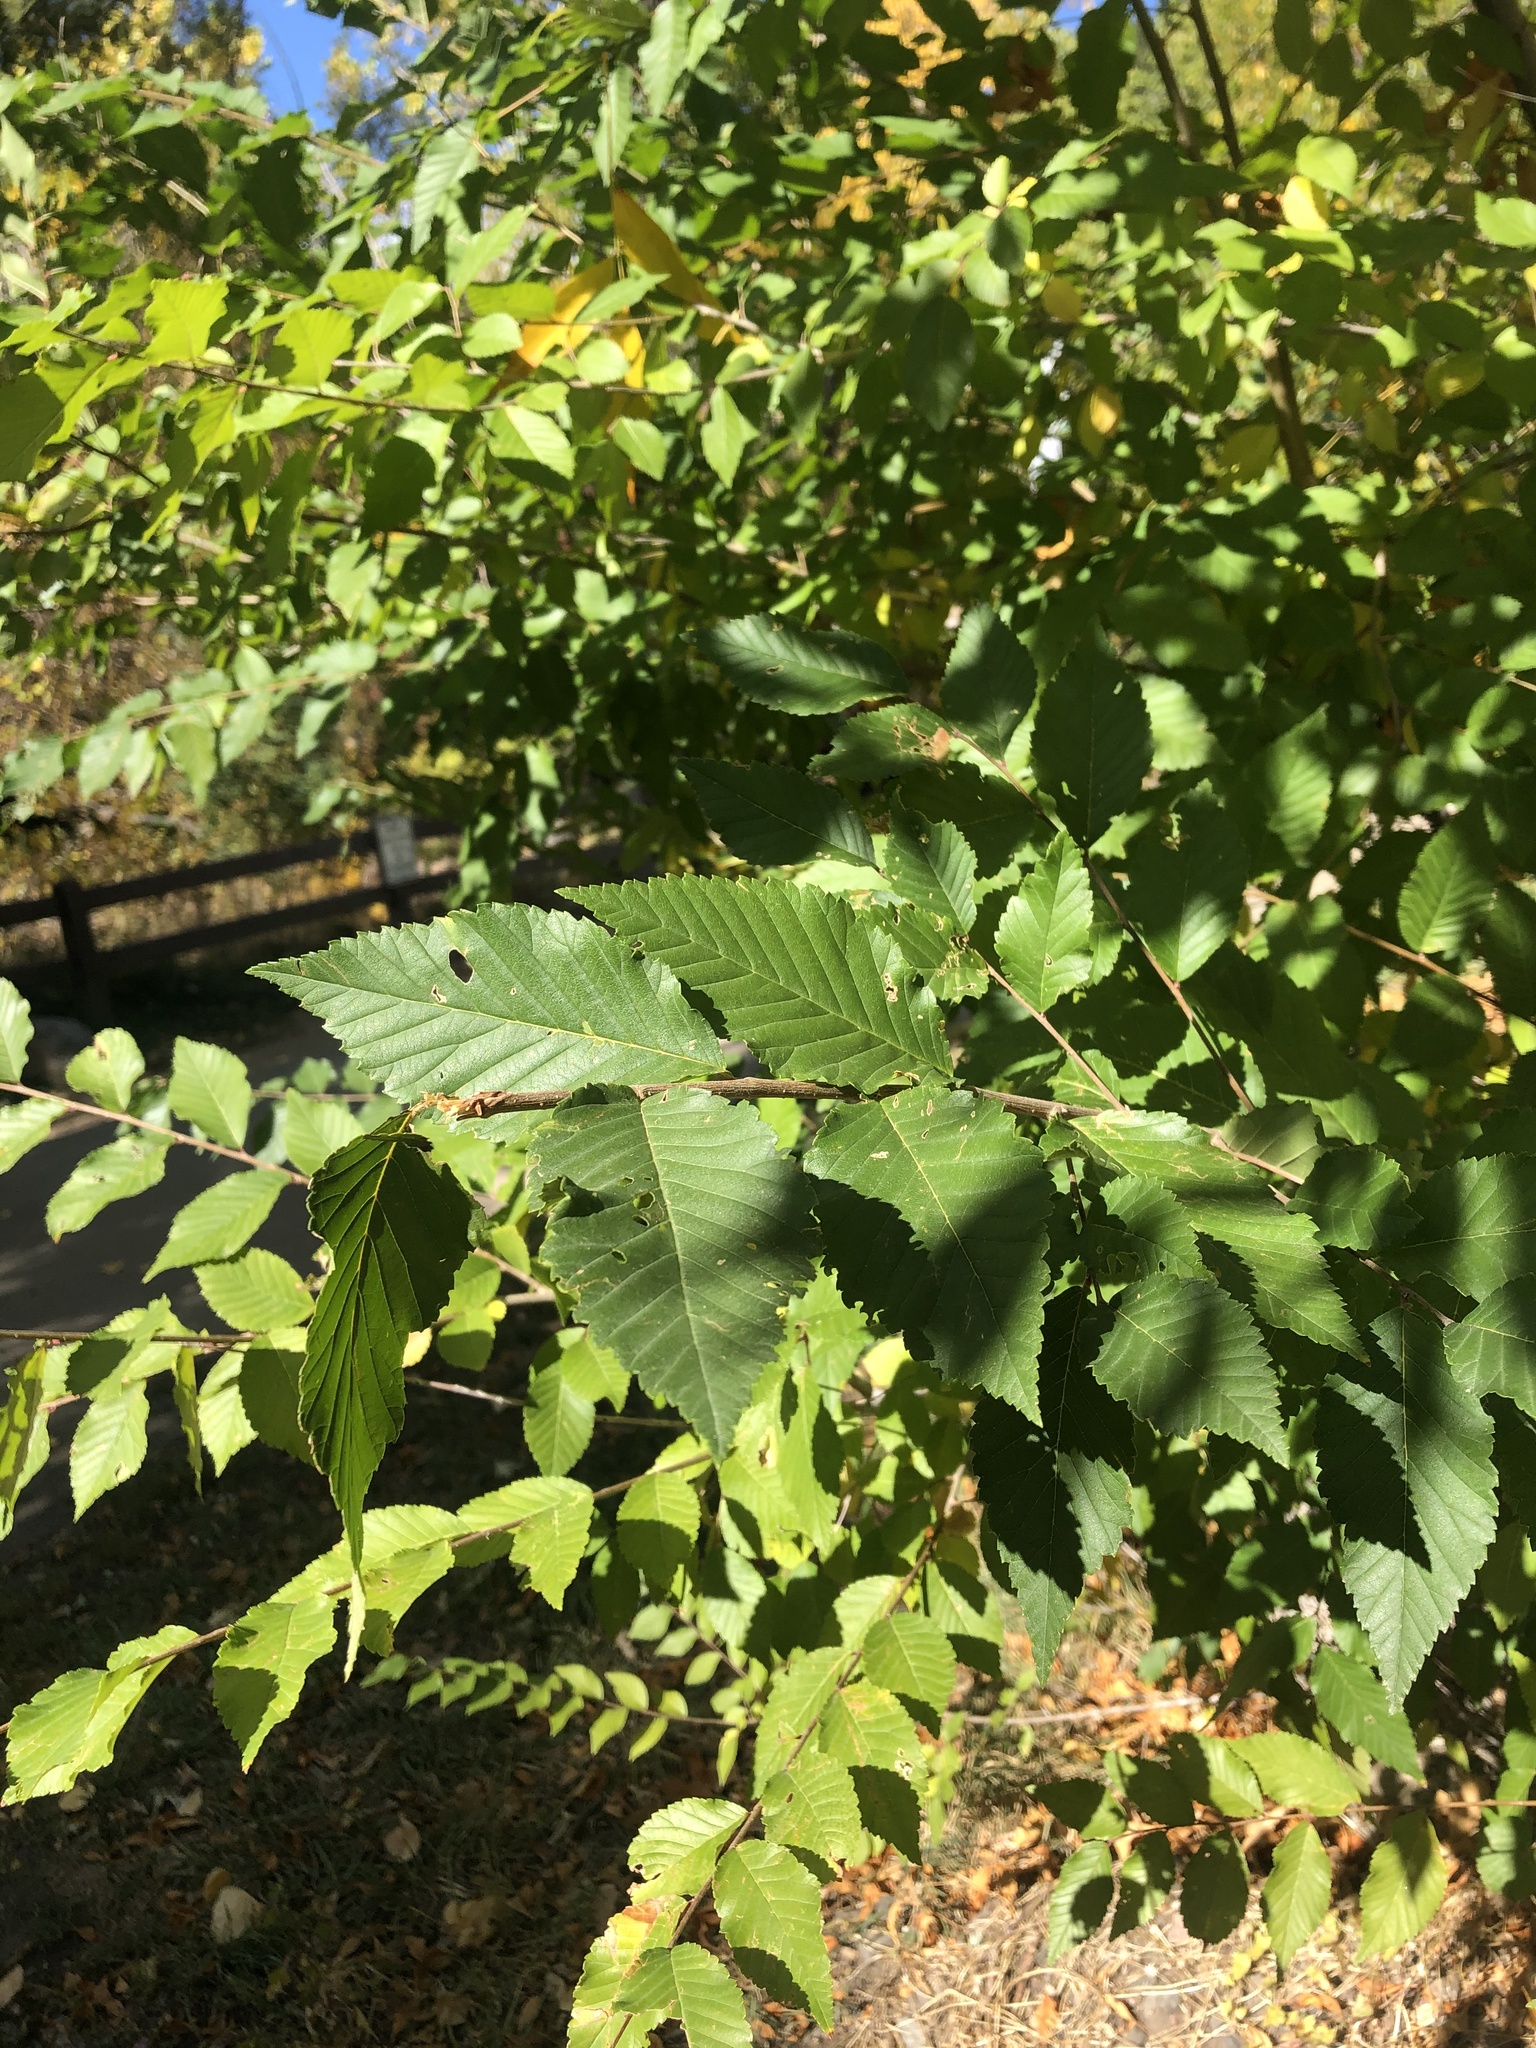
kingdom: Plantae
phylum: Tracheophyta
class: Magnoliopsida
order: Rosales
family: Ulmaceae
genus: Ulmus
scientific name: Ulmus pumila
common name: Siberian elm
